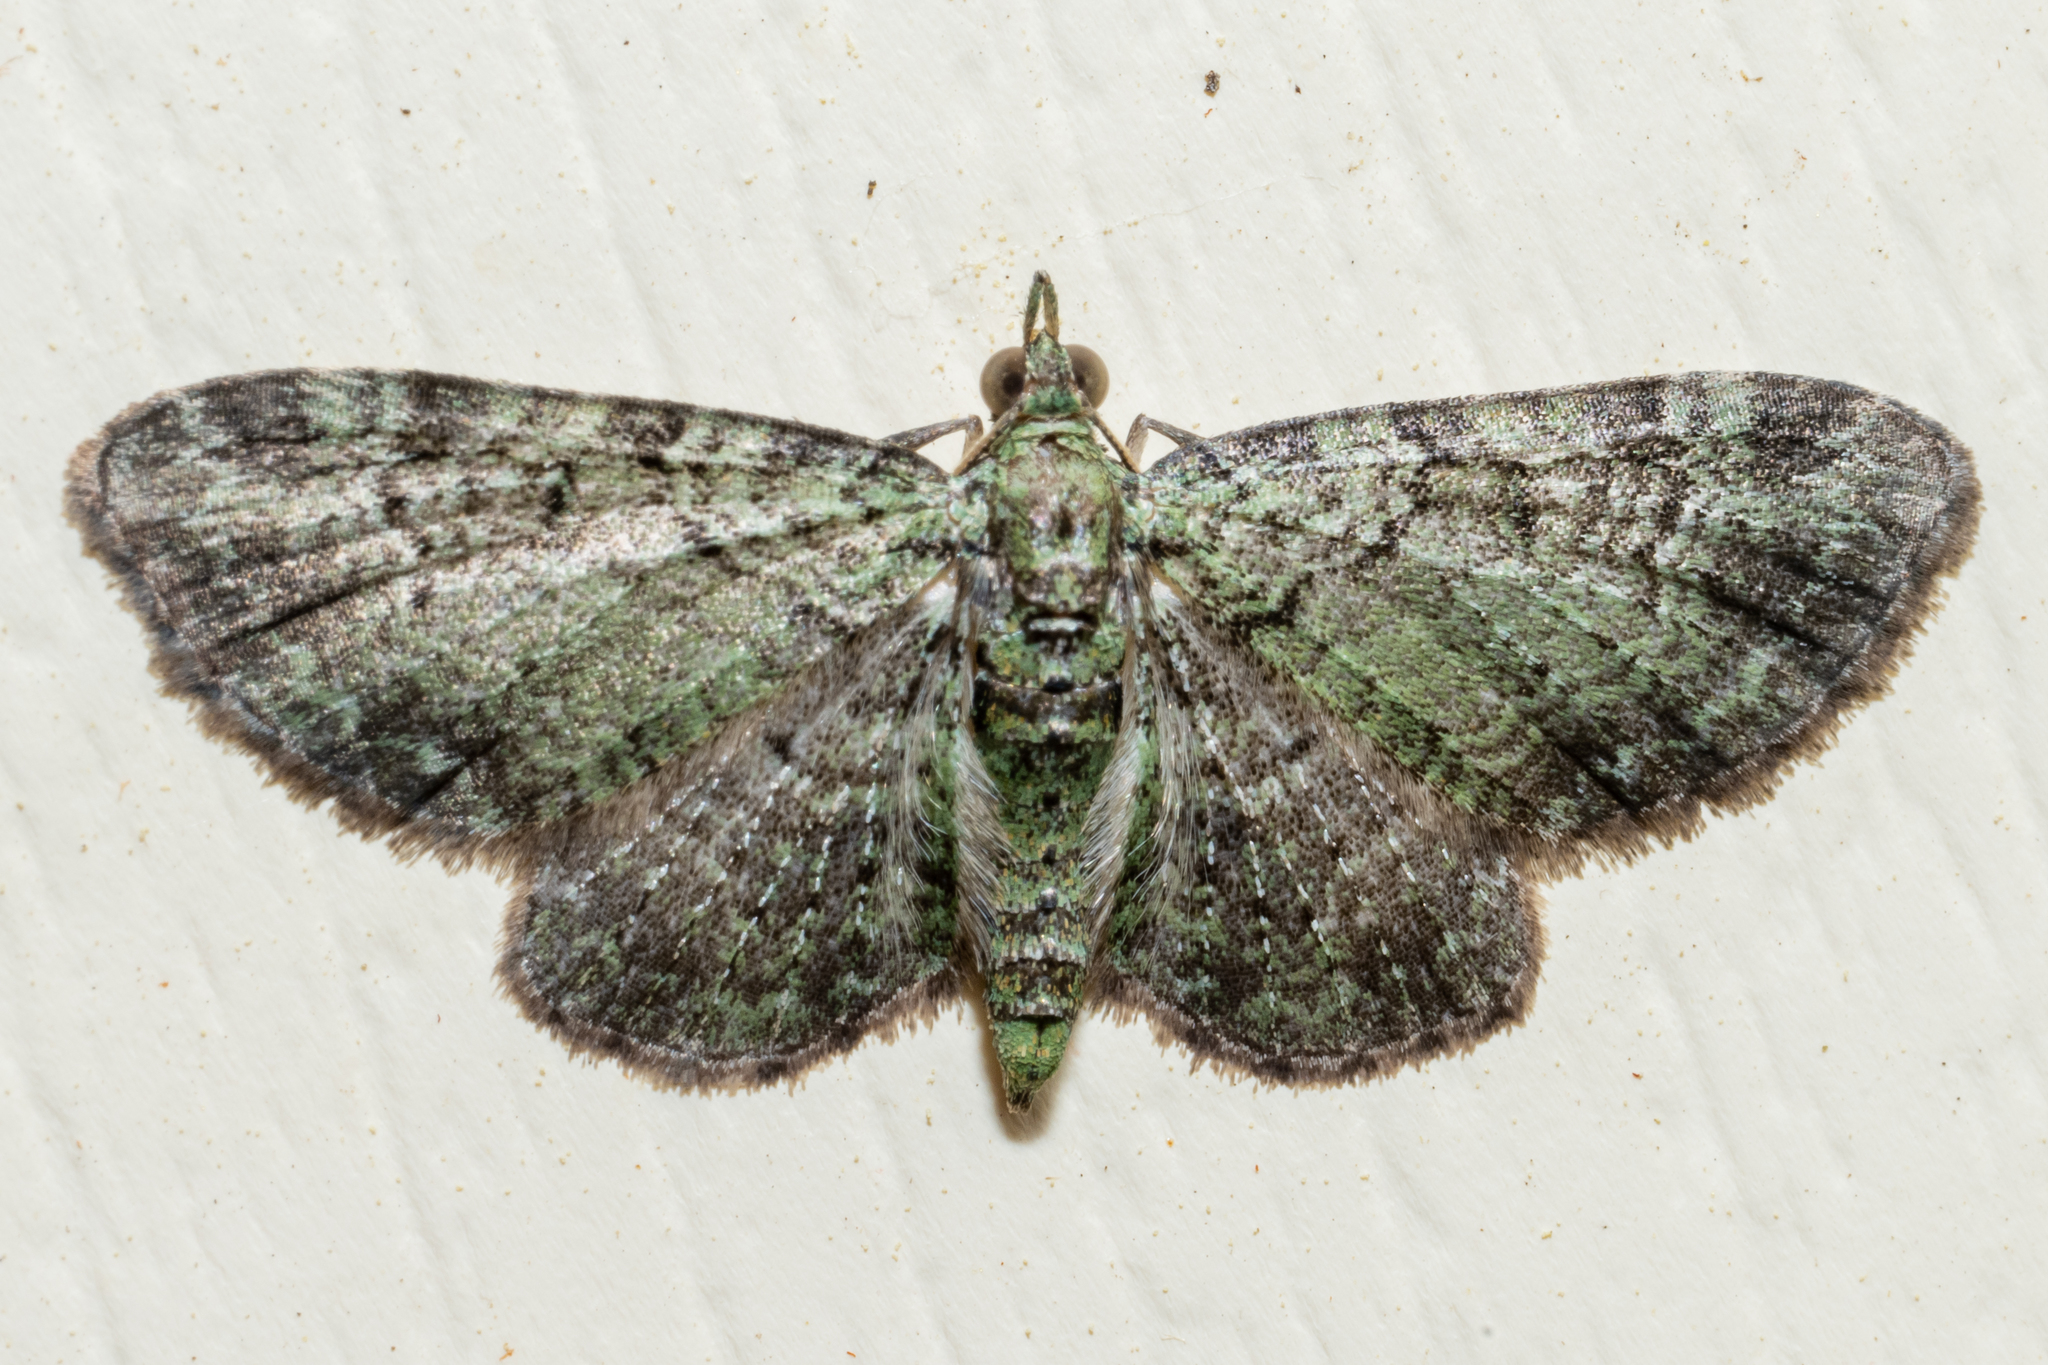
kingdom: Animalia
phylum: Arthropoda
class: Insecta
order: Lepidoptera
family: Geometridae
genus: Pasiphila
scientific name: Pasiphila rectangulata
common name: Green pug
